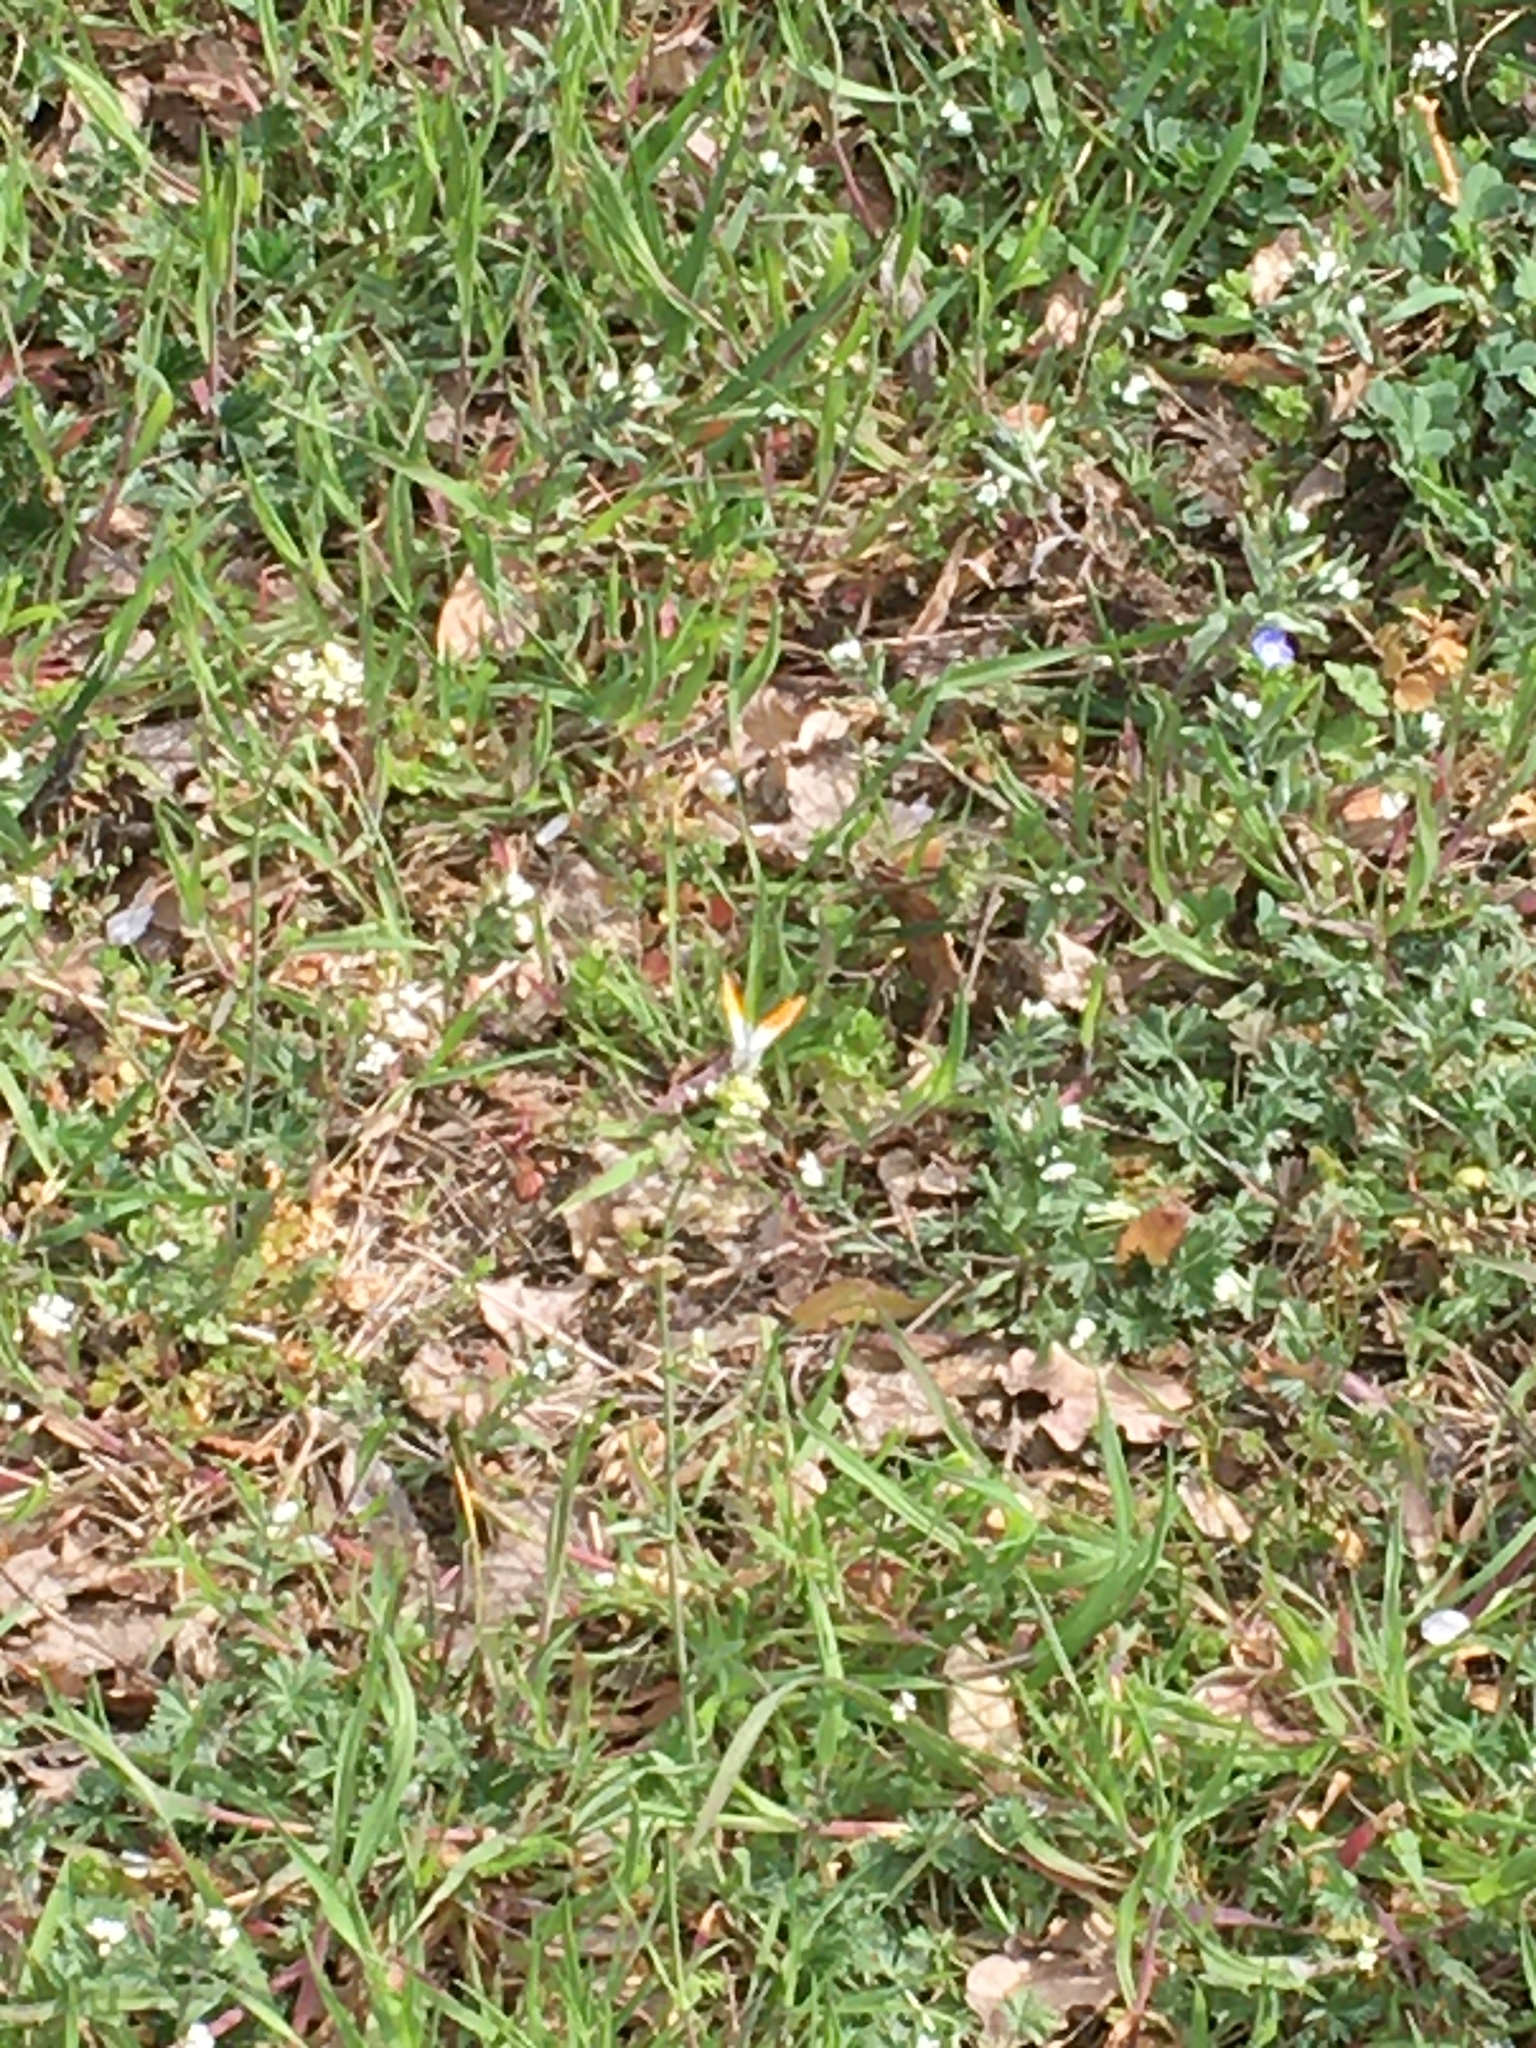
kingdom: Animalia
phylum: Arthropoda
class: Insecta
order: Lepidoptera
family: Pieridae
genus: Anthocharis
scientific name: Anthocharis cardamines
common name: Orange-tip
